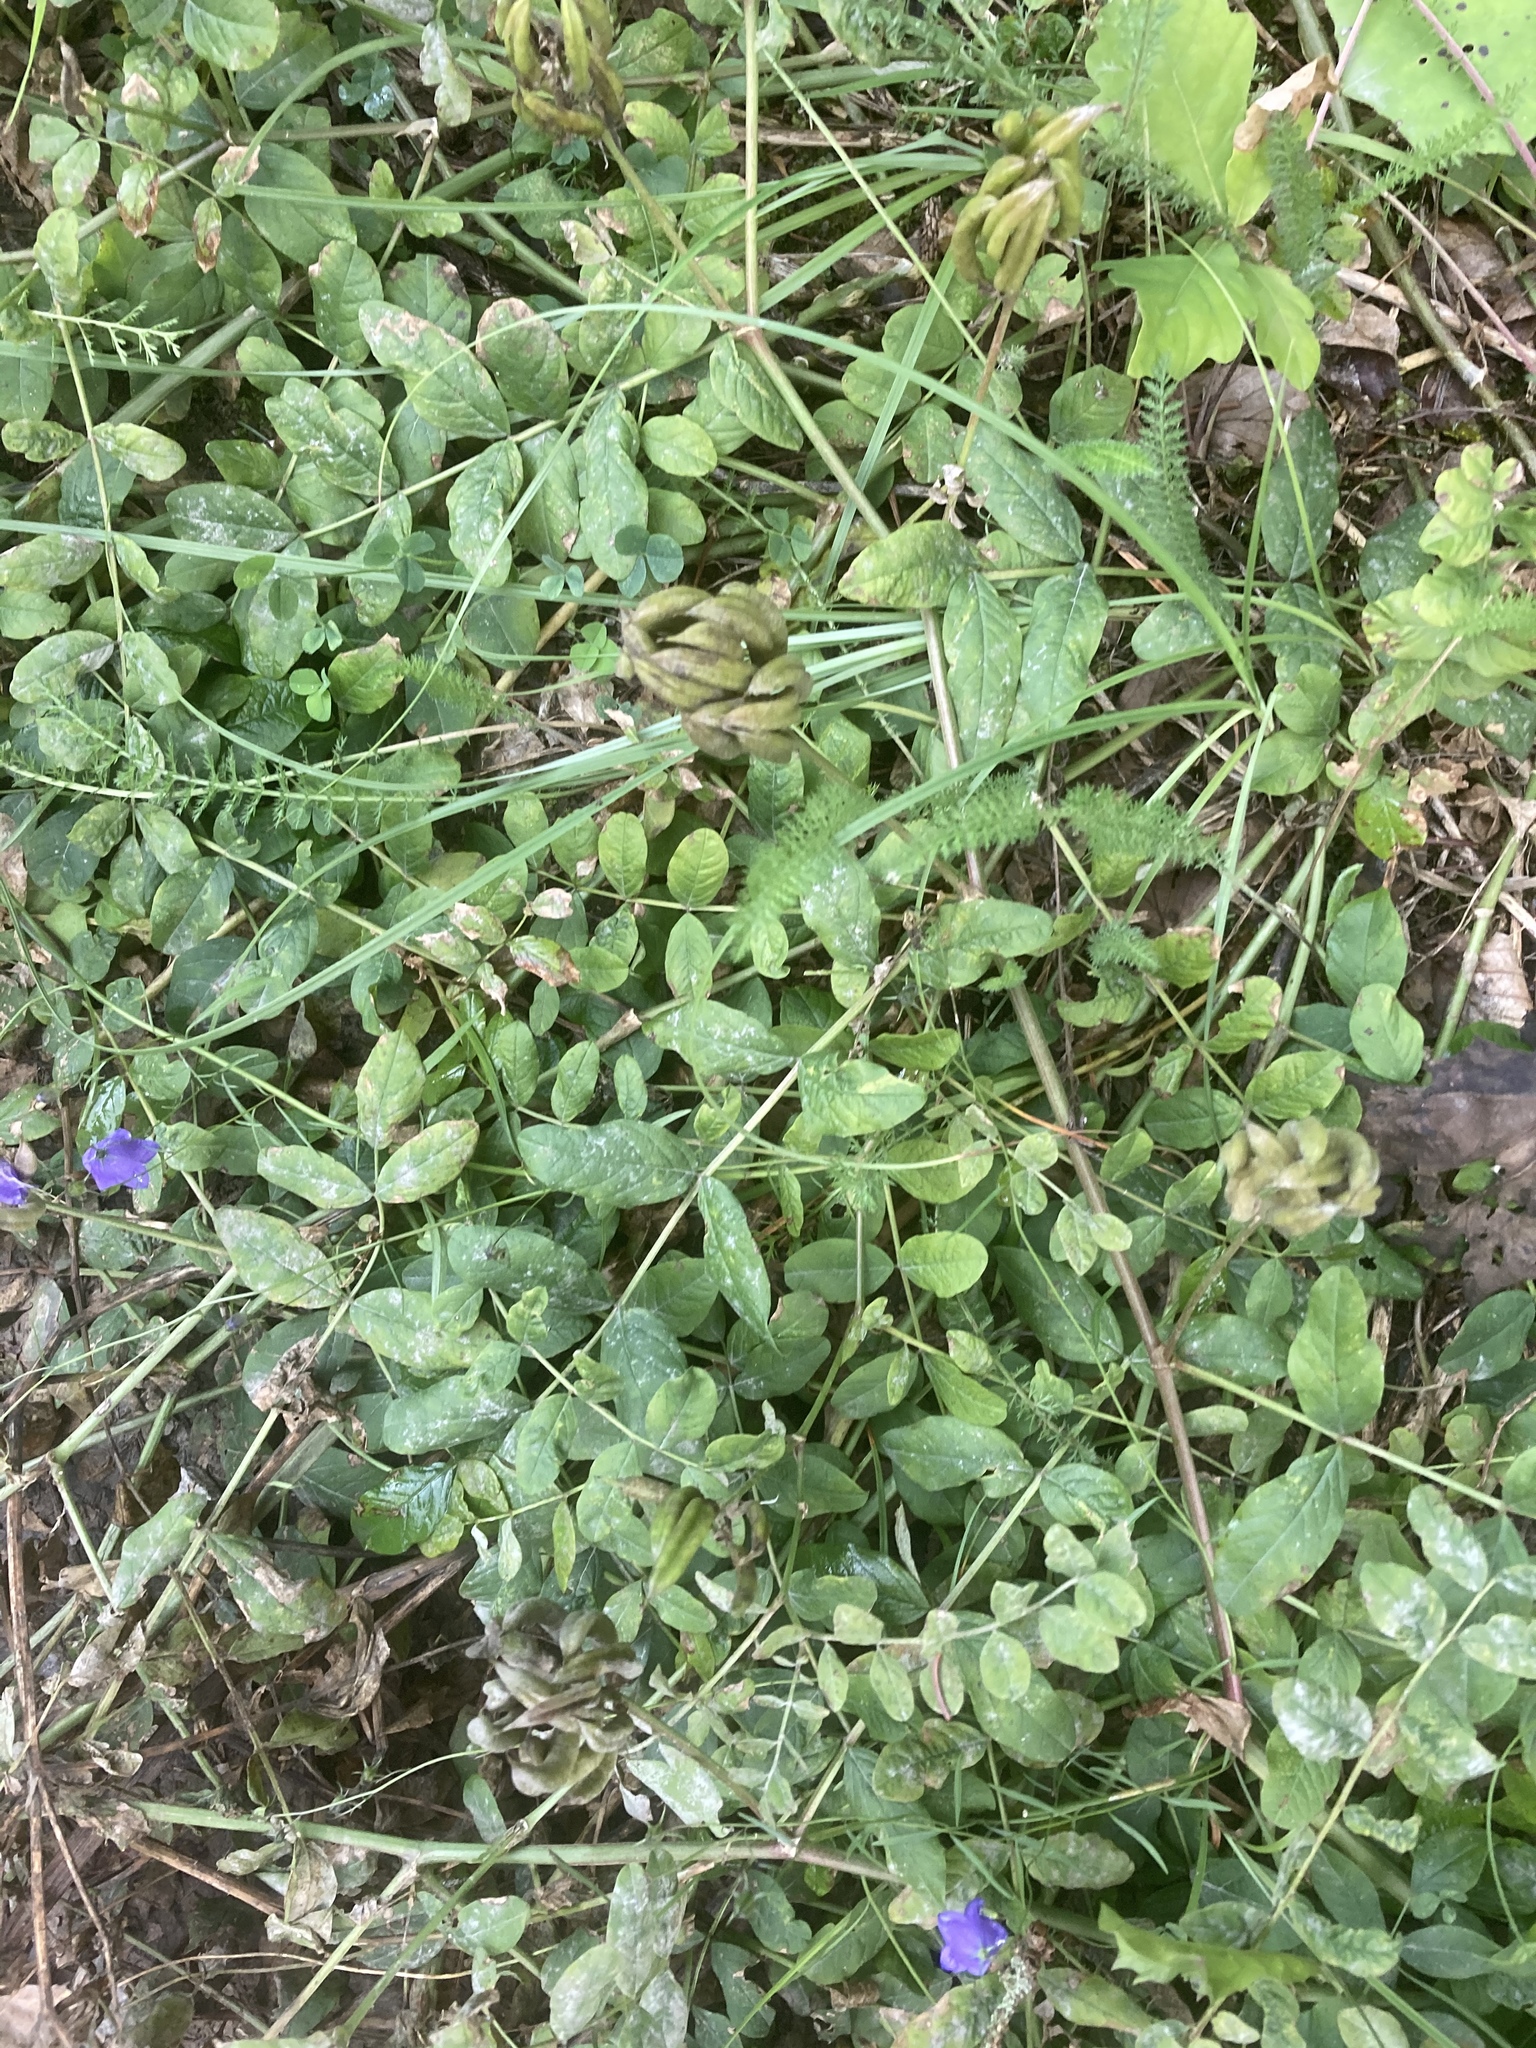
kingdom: Plantae
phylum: Tracheophyta
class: Magnoliopsida
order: Fabales
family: Fabaceae
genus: Astragalus
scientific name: Astragalus glycyphyllos
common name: Wild liquorice
